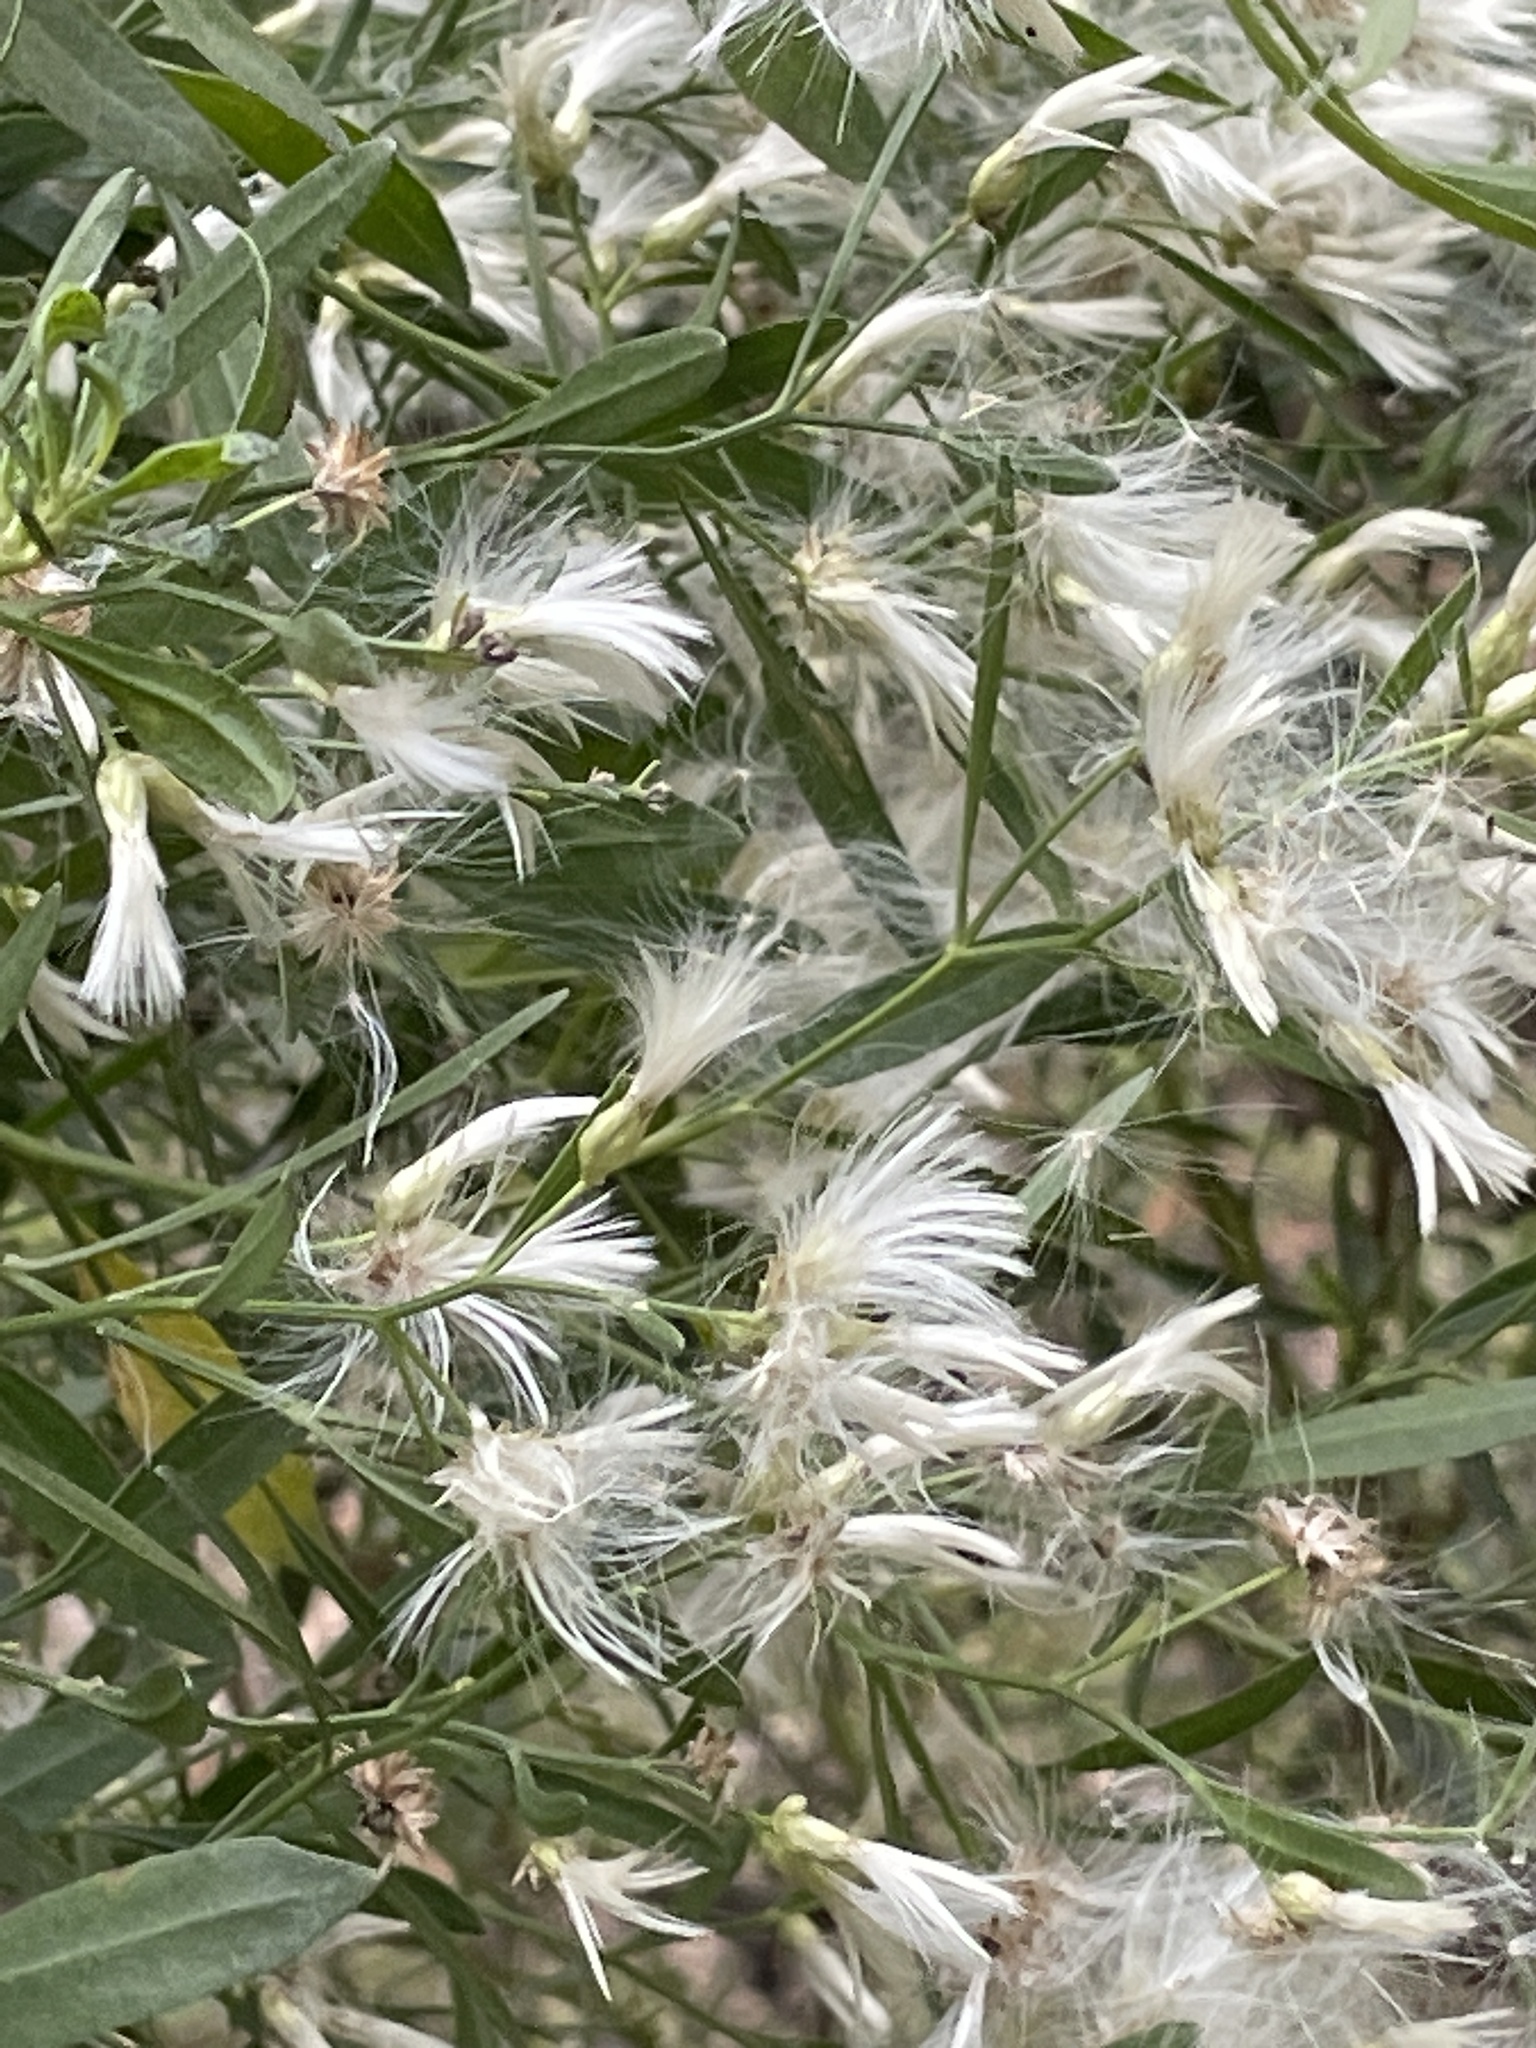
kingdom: Plantae
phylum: Tracheophyta
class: Magnoliopsida
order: Asterales
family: Asteraceae
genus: Baccharis
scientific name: Baccharis halimifolia
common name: Eastern baccharis
